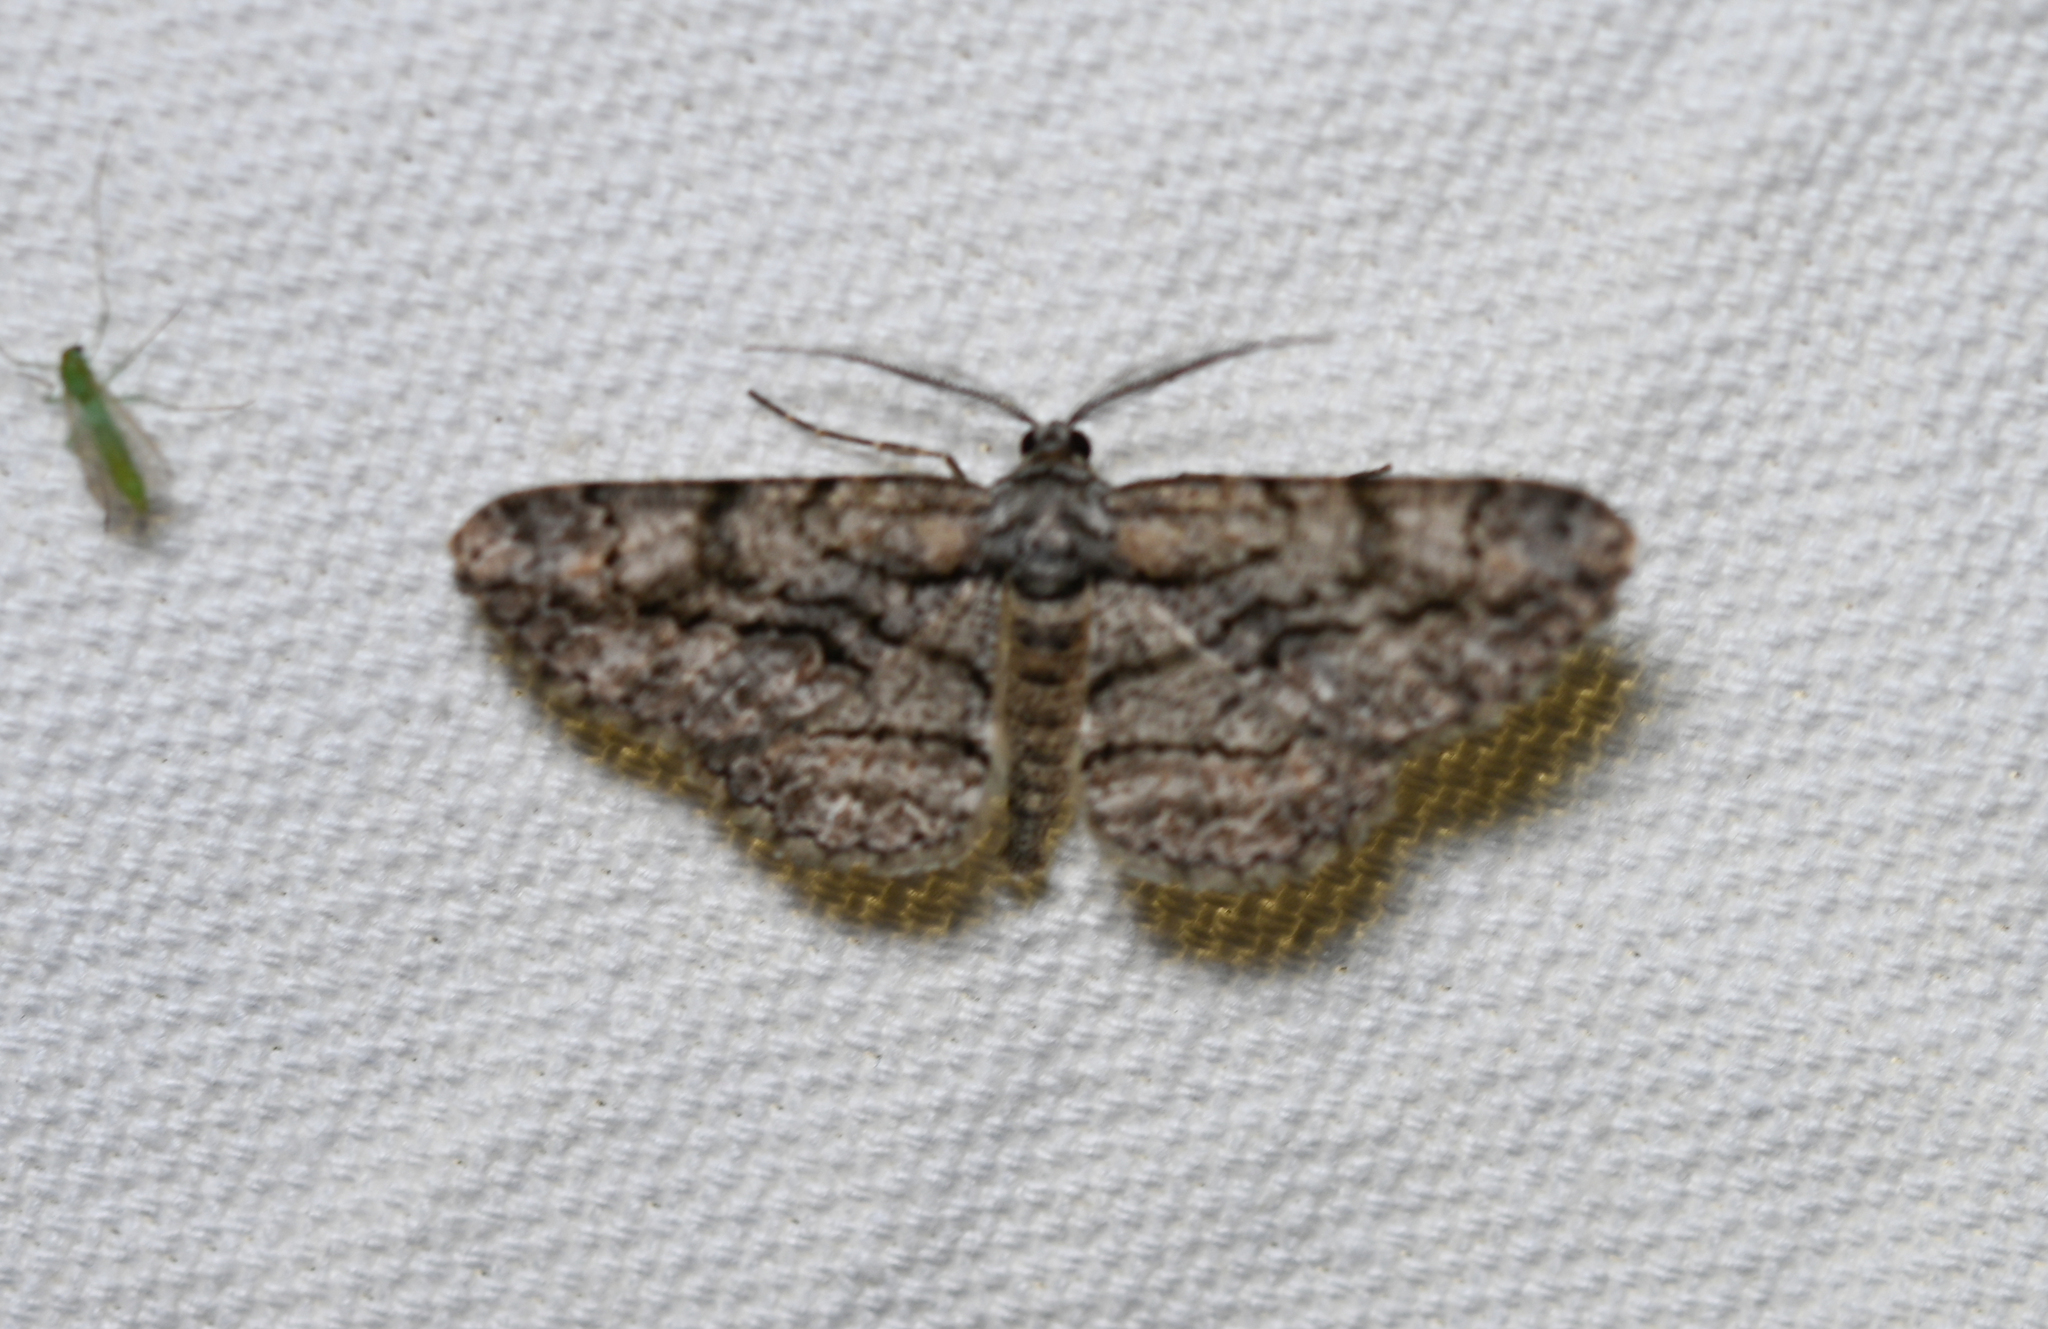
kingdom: Animalia
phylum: Arthropoda
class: Insecta
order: Lepidoptera
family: Geometridae
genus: Anavitrinella
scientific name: Anavitrinella pampinaria
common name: Common gray
